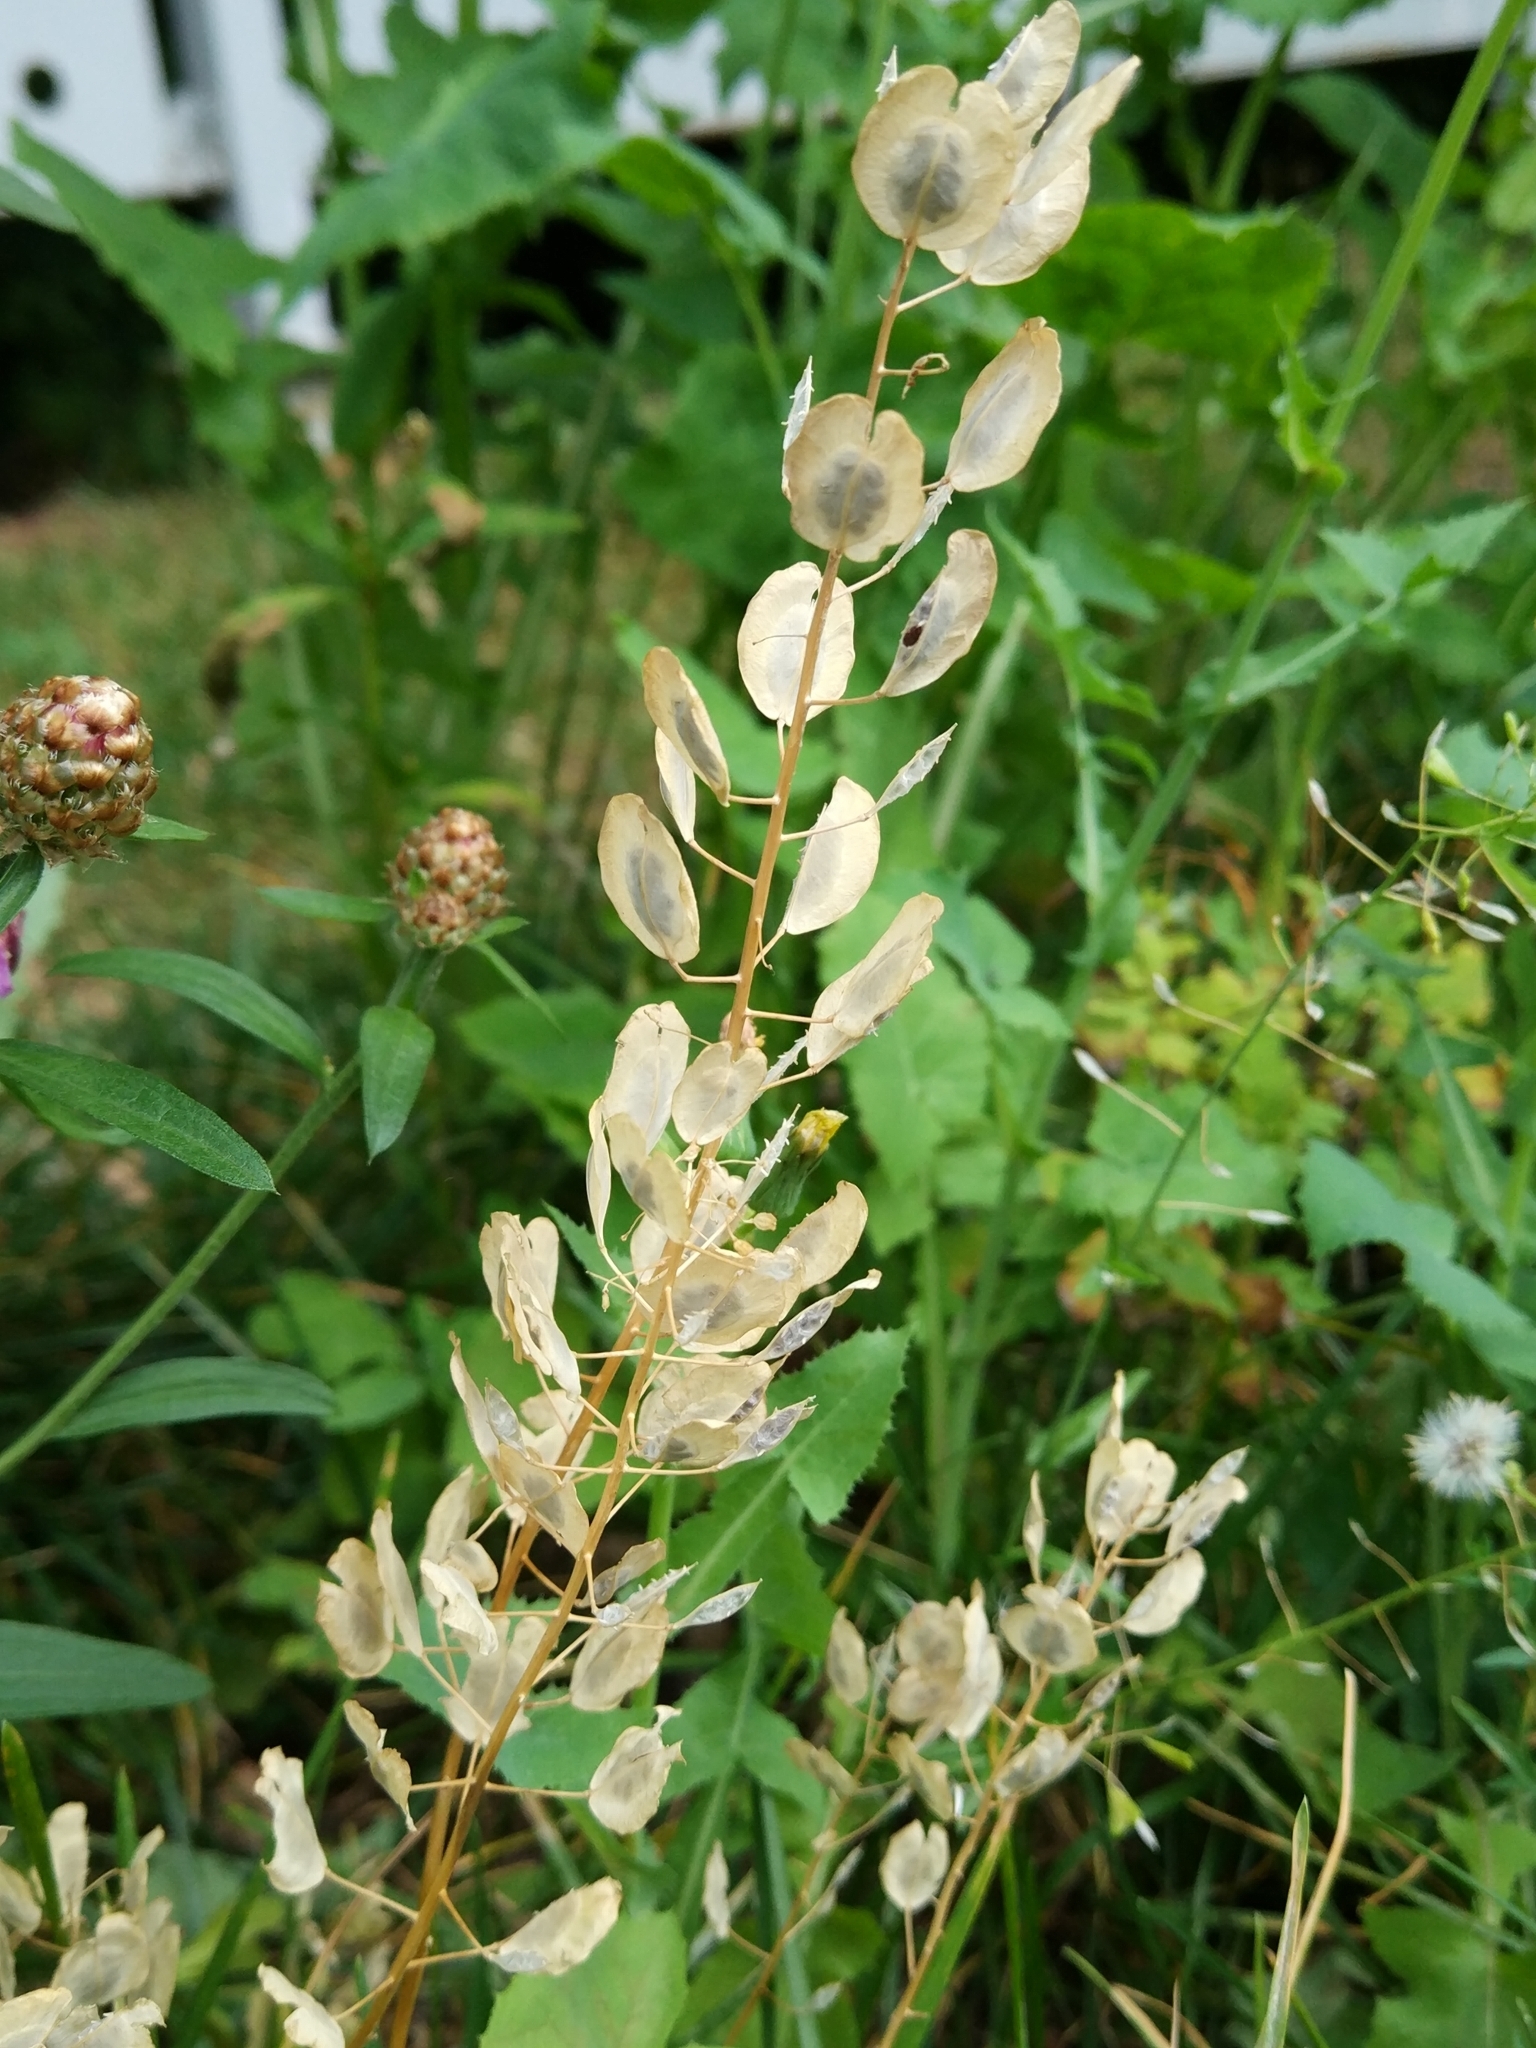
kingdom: Plantae
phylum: Tracheophyta
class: Magnoliopsida
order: Brassicales
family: Brassicaceae
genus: Thlaspi
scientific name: Thlaspi arvense
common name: Field pennycress
